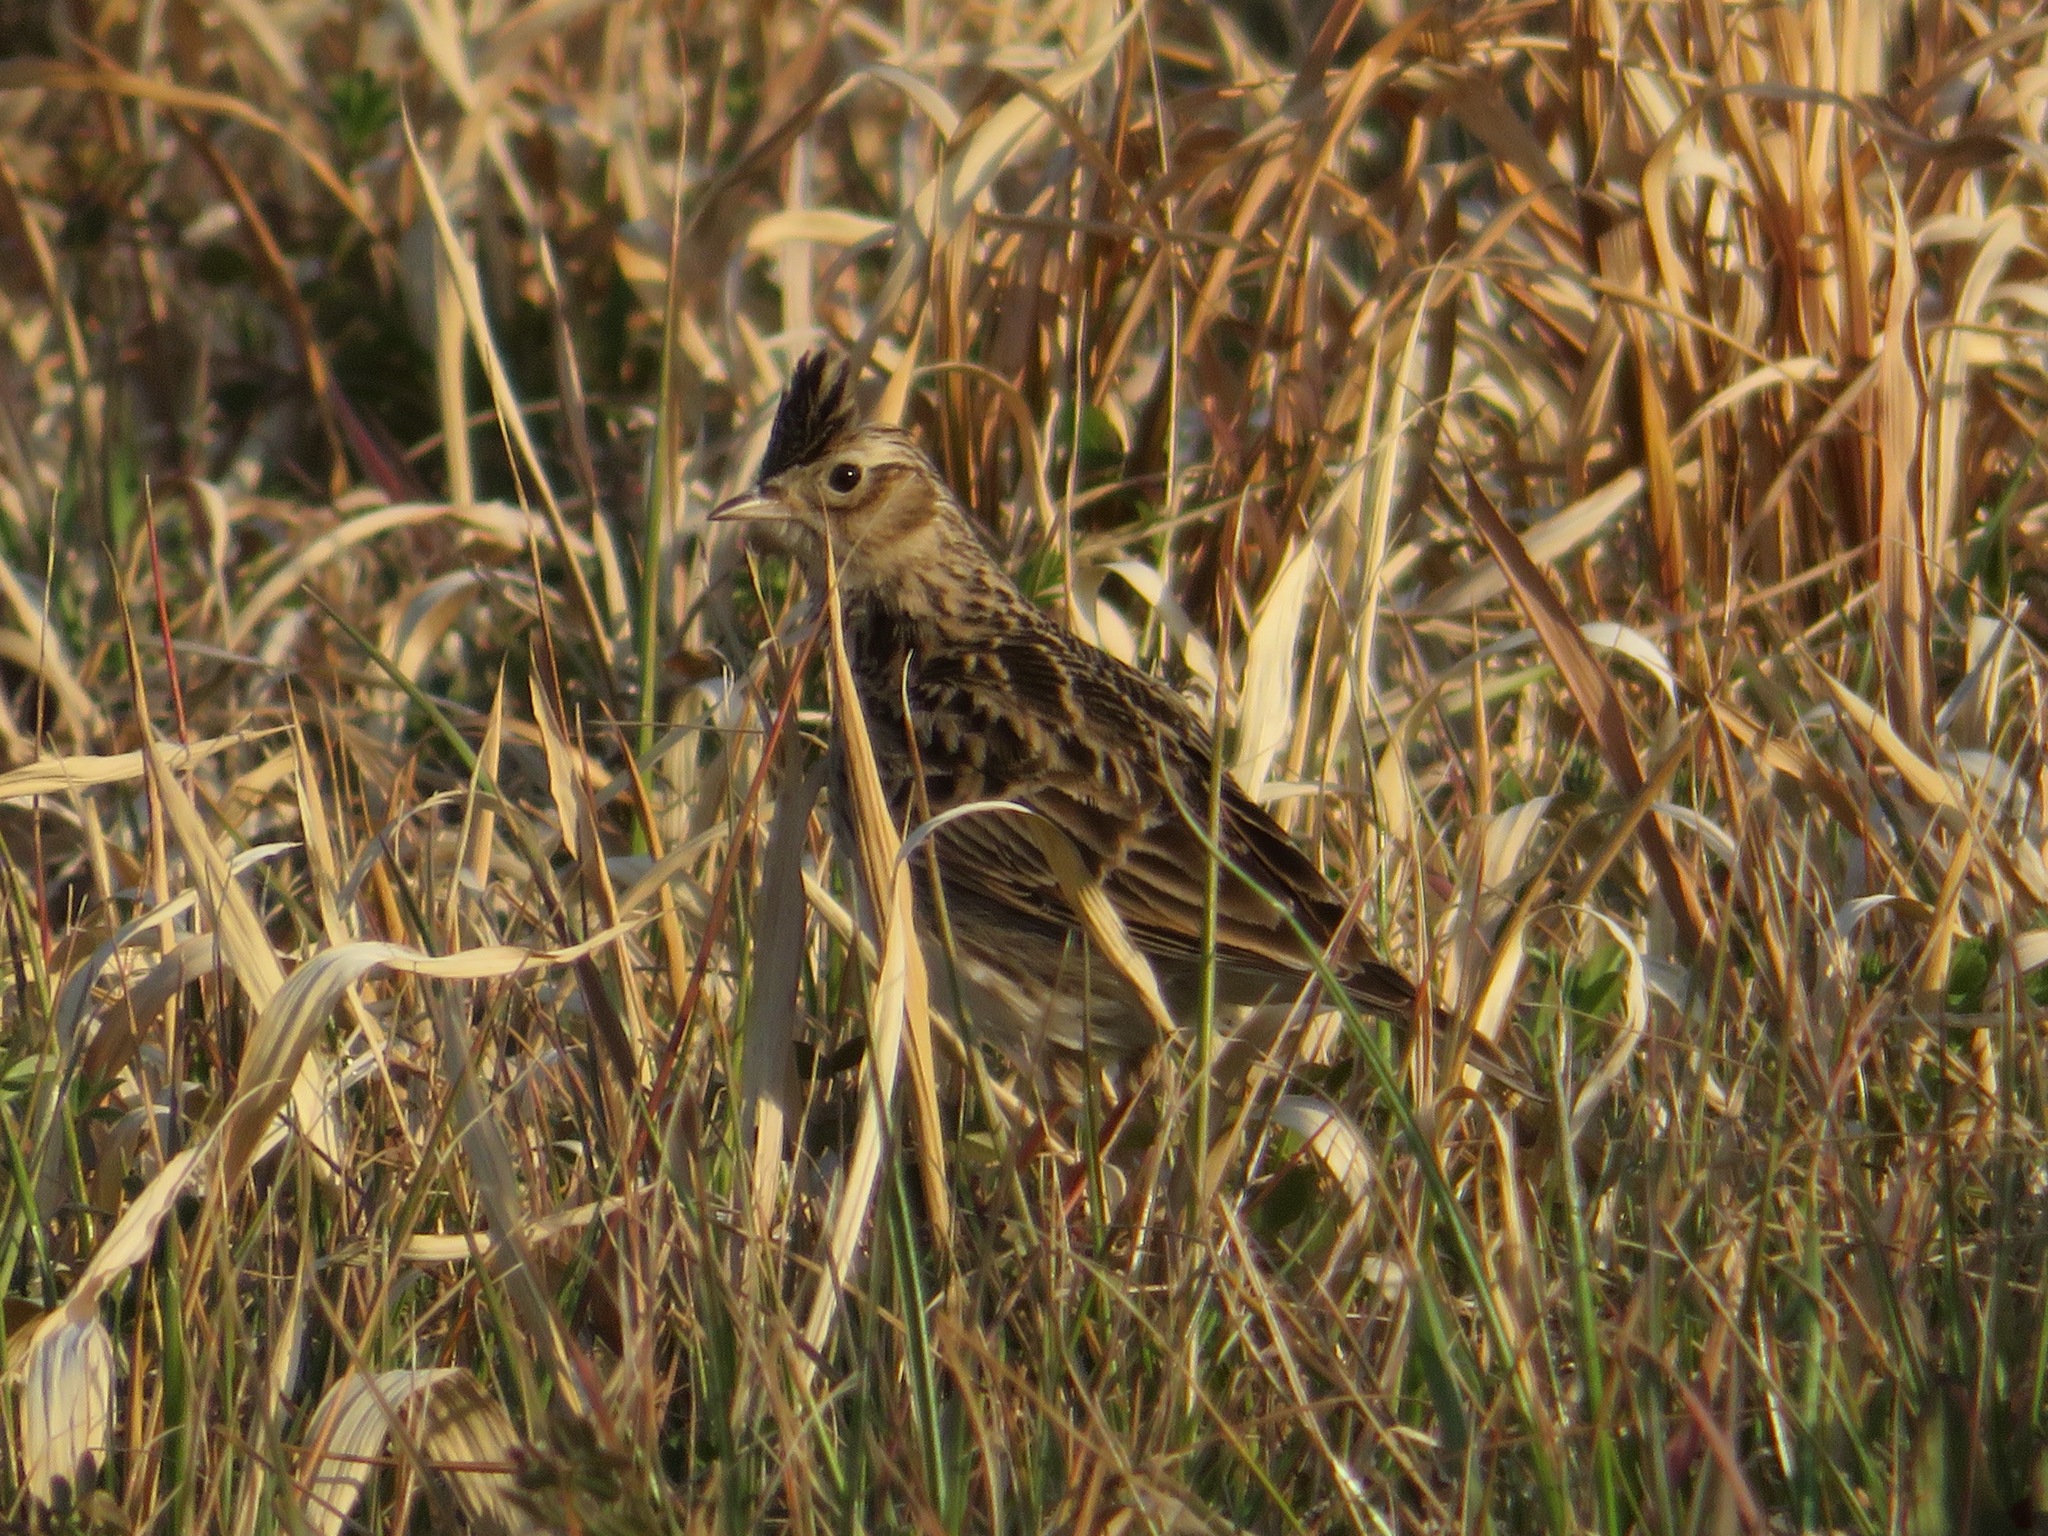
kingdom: Animalia
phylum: Chordata
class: Aves
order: Passeriformes
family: Alaudidae
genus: Alauda
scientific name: Alauda arvensis
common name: Eurasian skylark
